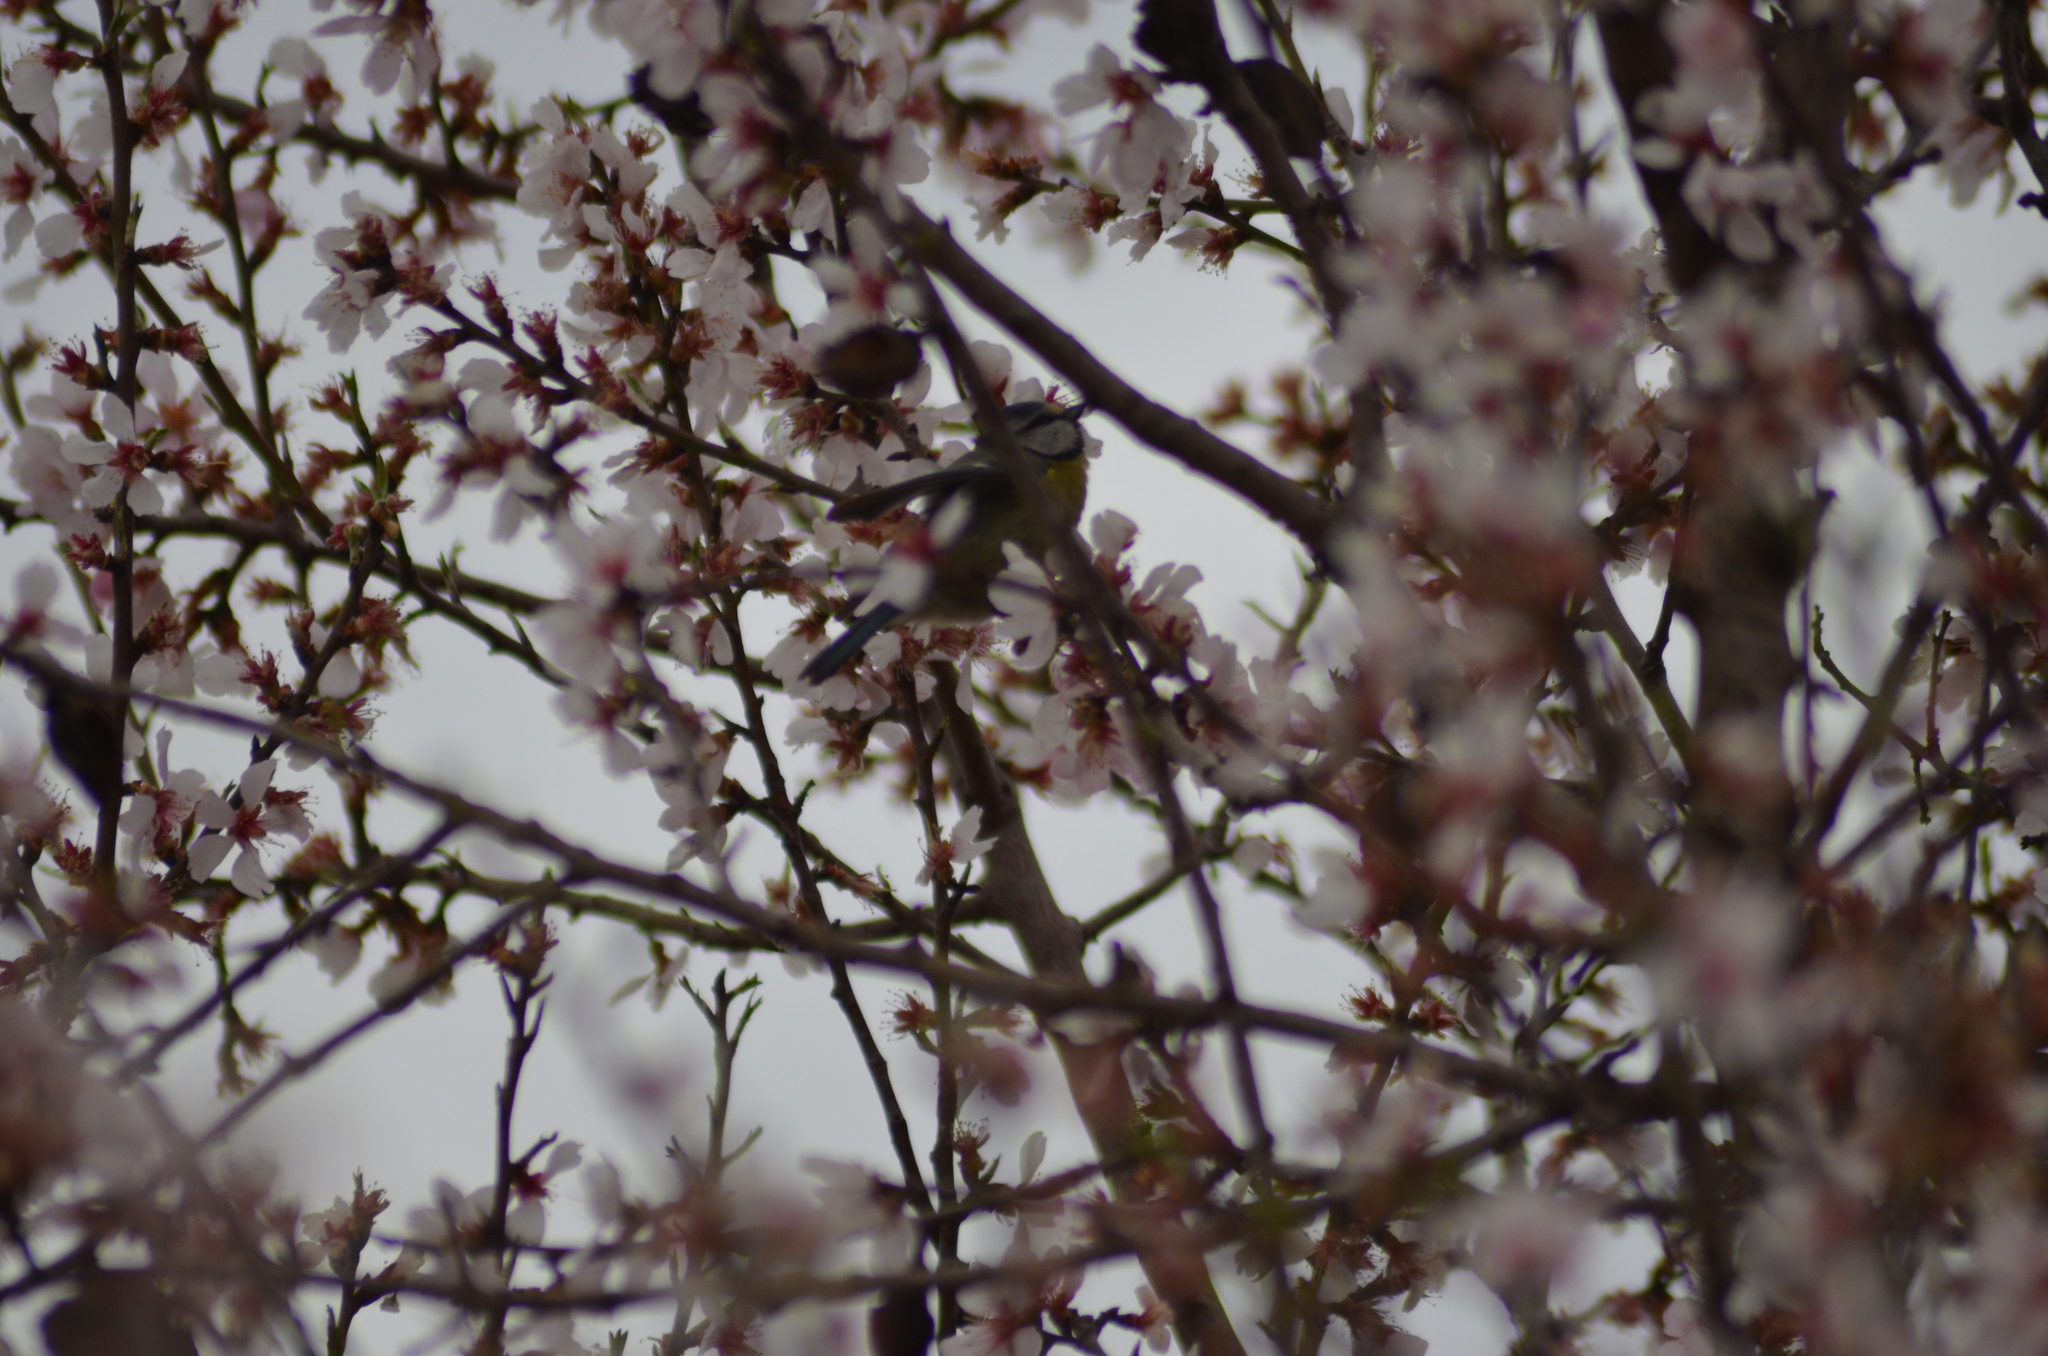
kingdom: Animalia
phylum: Chordata
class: Aves
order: Passeriformes
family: Paridae
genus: Cyanistes
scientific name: Cyanistes caeruleus
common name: Eurasian blue tit
